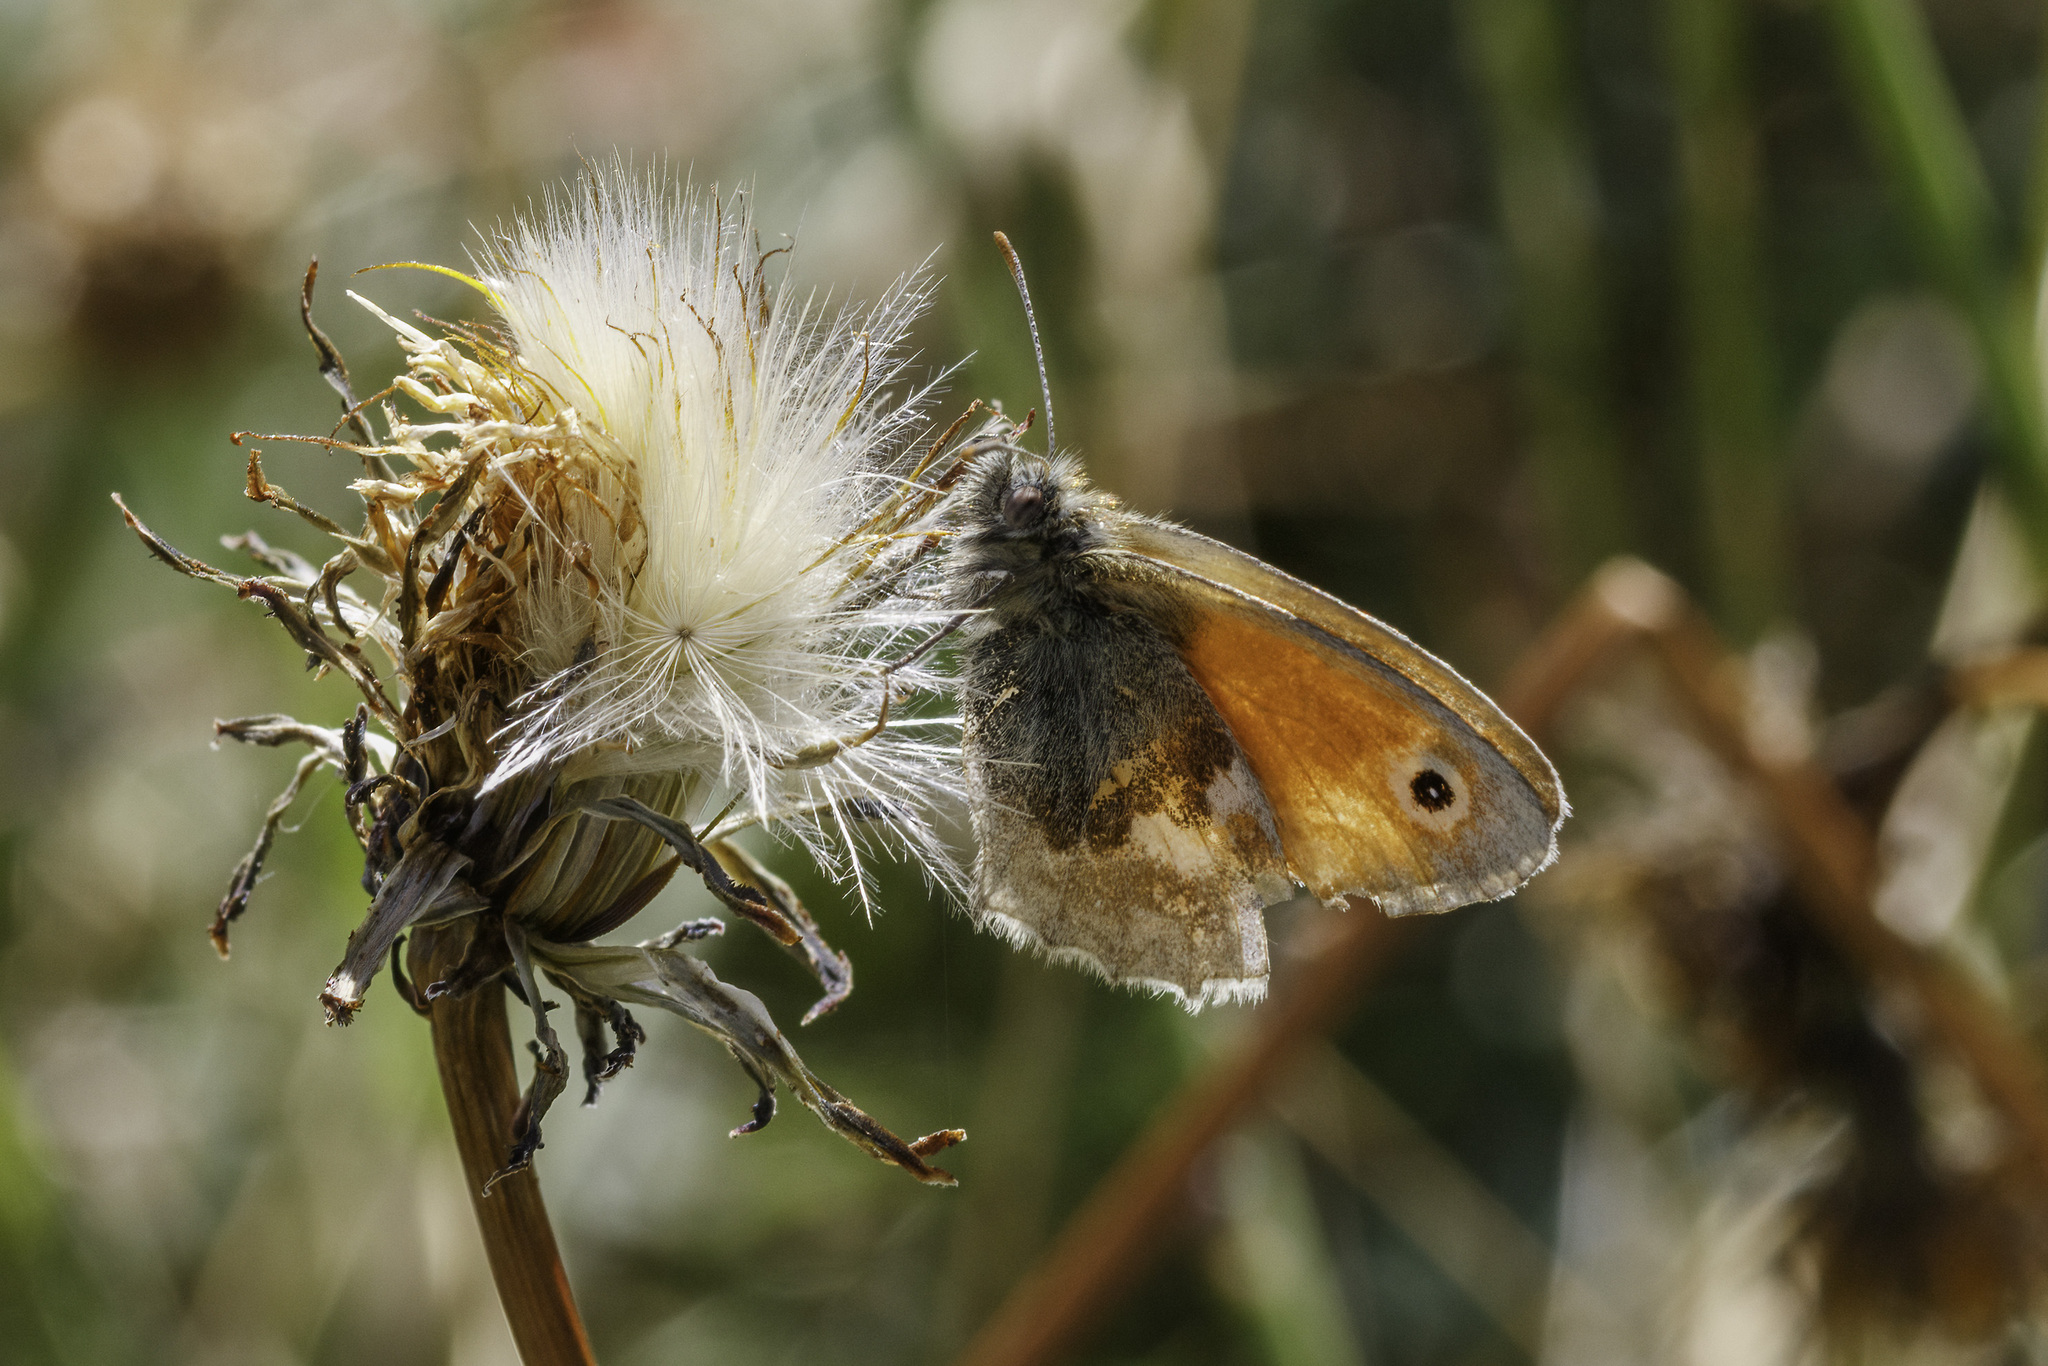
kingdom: Animalia
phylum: Arthropoda
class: Insecta
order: Lepidoptera
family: Nymphalidae
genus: Coenonympha
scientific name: Coenonympha pamphilus
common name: Small heath
